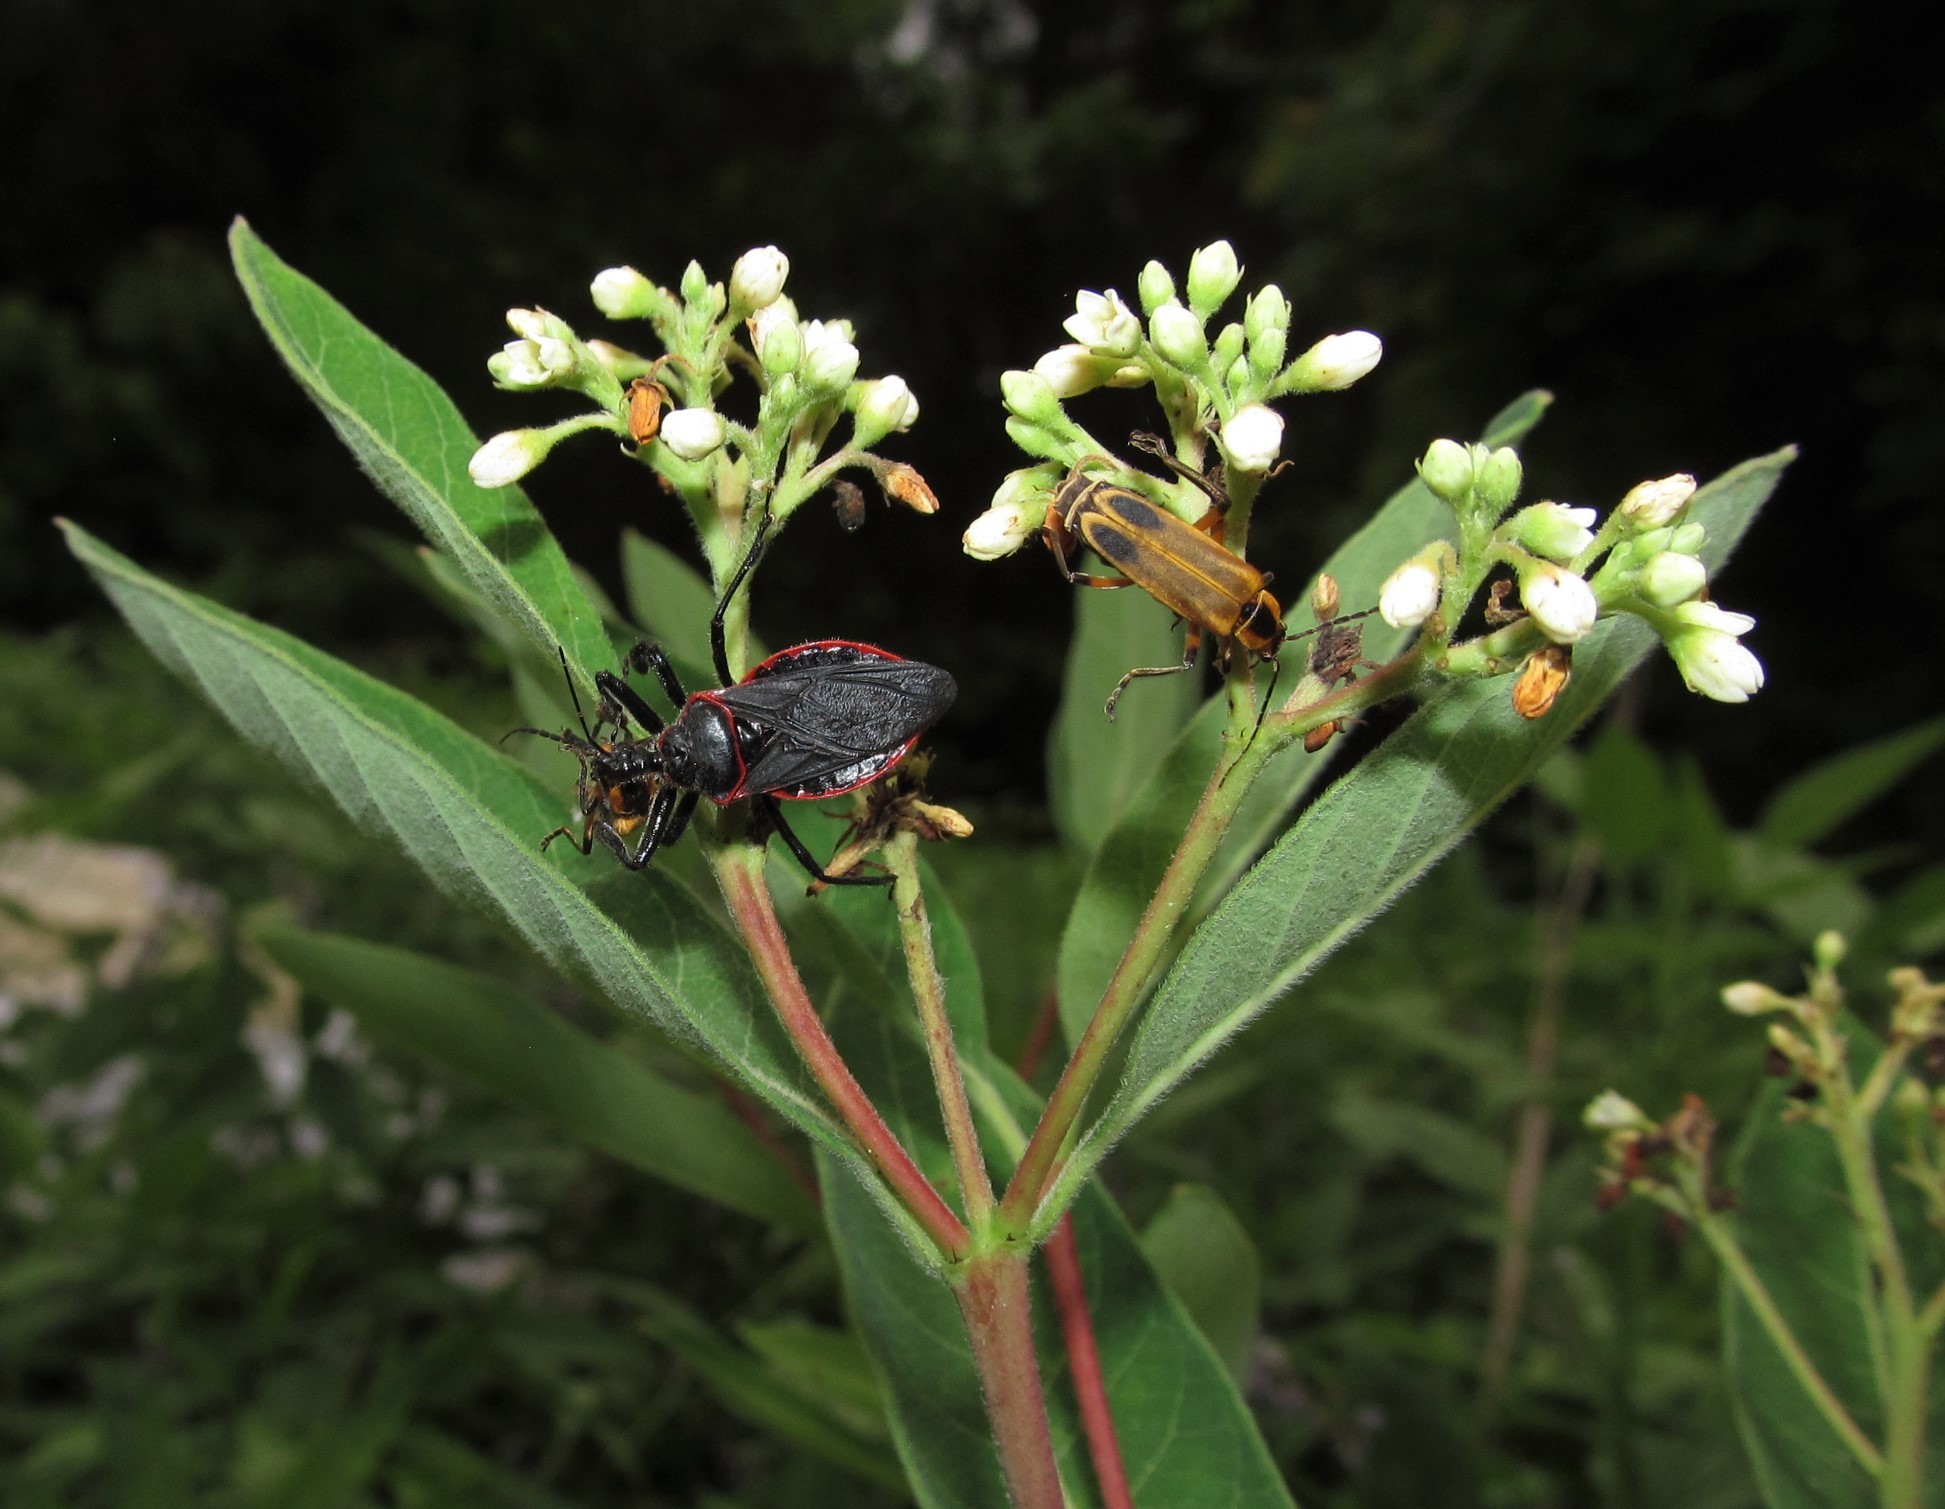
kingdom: Animalia
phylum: Arthropoda
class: Insecta
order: Coleoptera
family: Cantharidae
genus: Chauliognathus
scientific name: Chauliognathus marginatus
